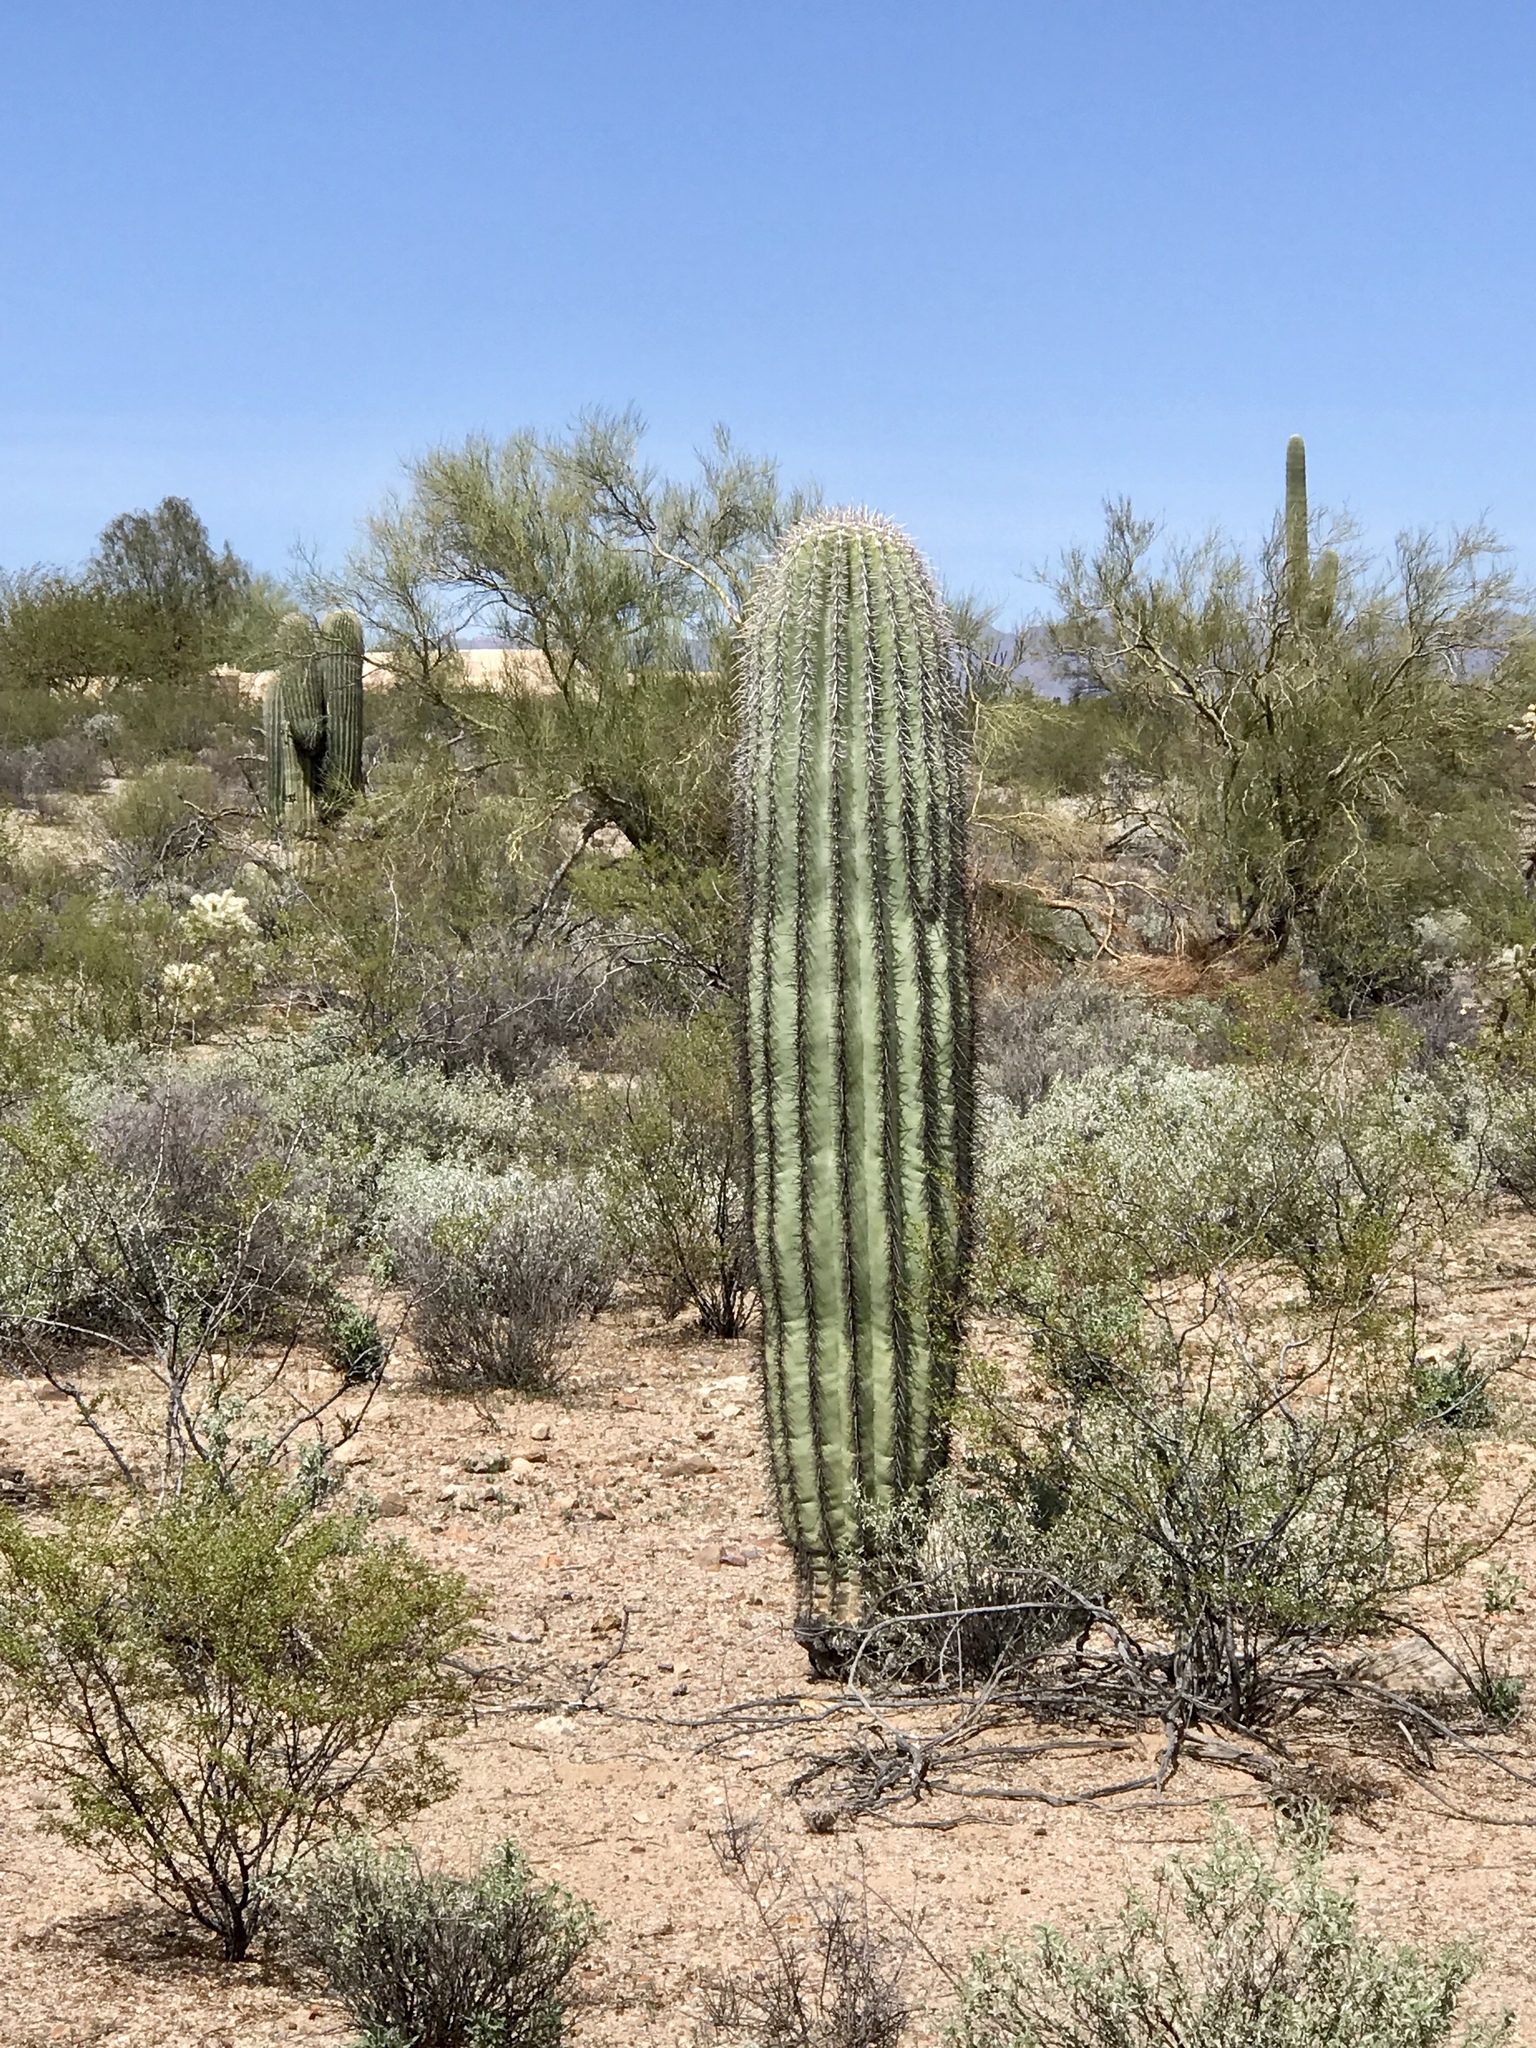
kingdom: Plantae
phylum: Tracheophyta
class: Magnoliopsida
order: Caryophyllales
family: Cactaceae
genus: Carnegiea
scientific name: Carnegiea gigantea
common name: Saguaro
